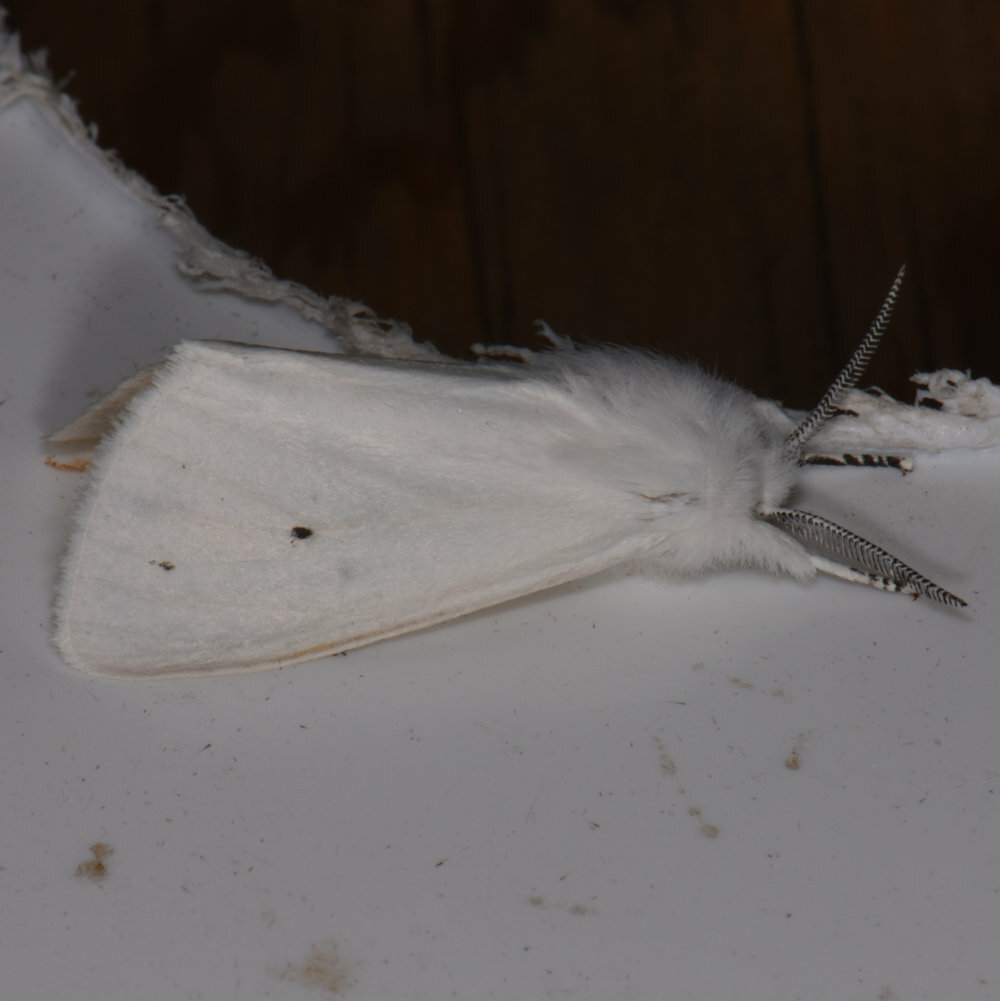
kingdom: Animalia
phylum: Arthropoda
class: Insecta
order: Lepidoptera
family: Erebidae
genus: Spilosoma
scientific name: Spilosoma virginica
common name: Virginia tiger moth
